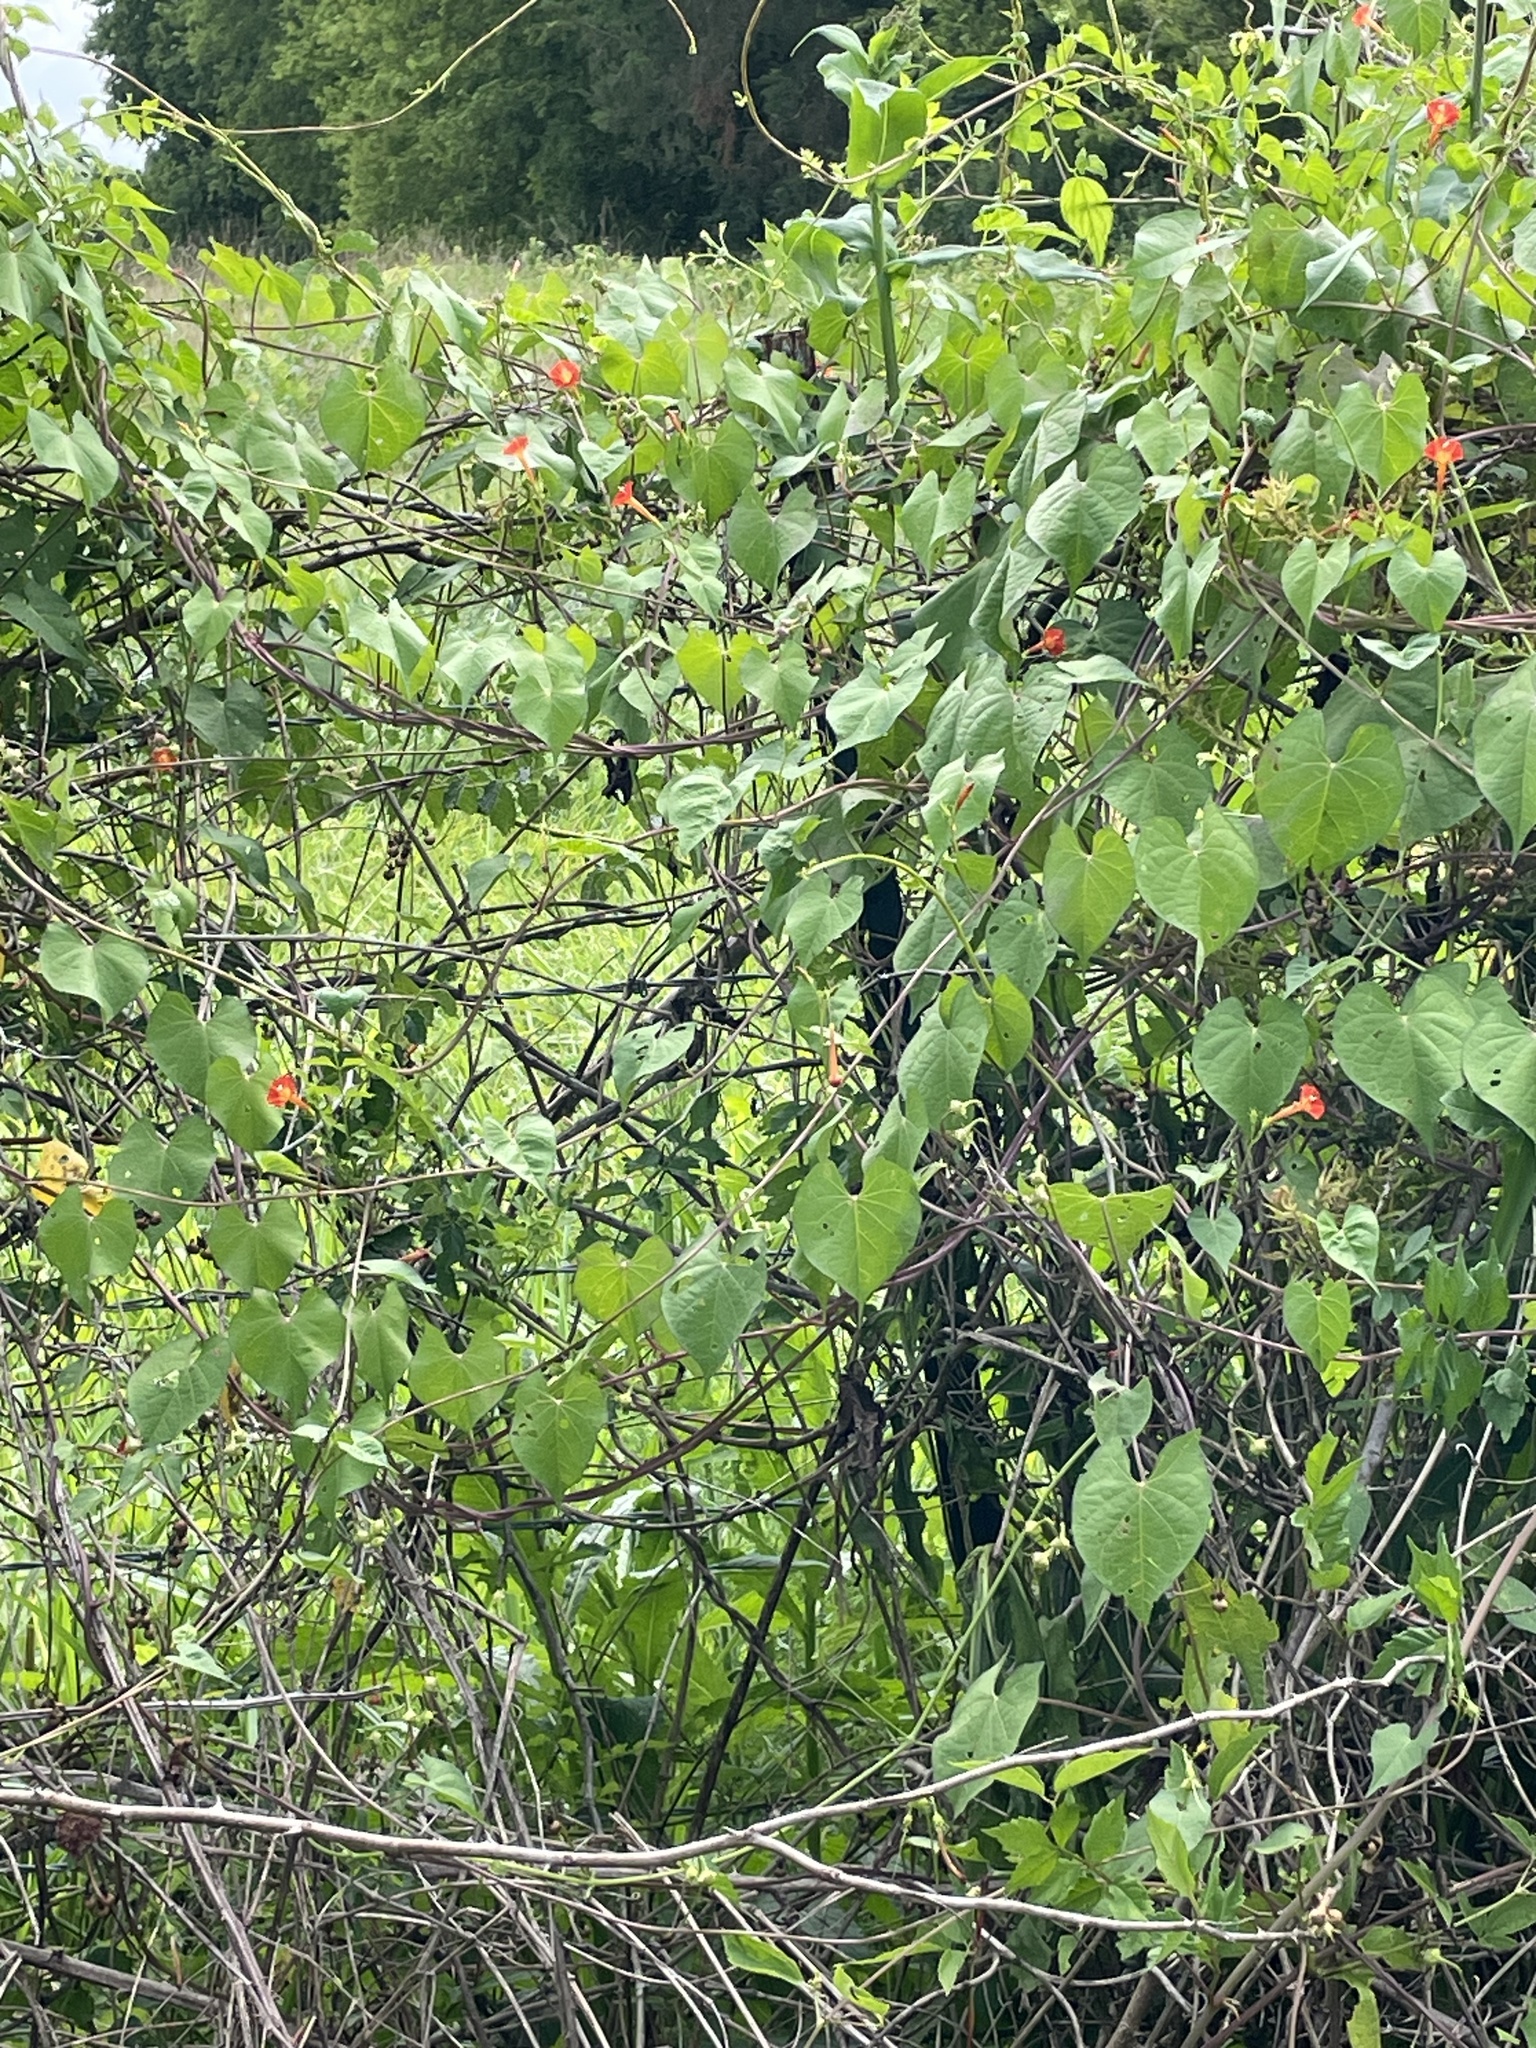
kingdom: Plantae
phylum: Tracheophyta
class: Magnoliopsida
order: Solanales
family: Convolvulaceae
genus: Ipomoea
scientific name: Ipomoea coccinea
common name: Red morning-glory
